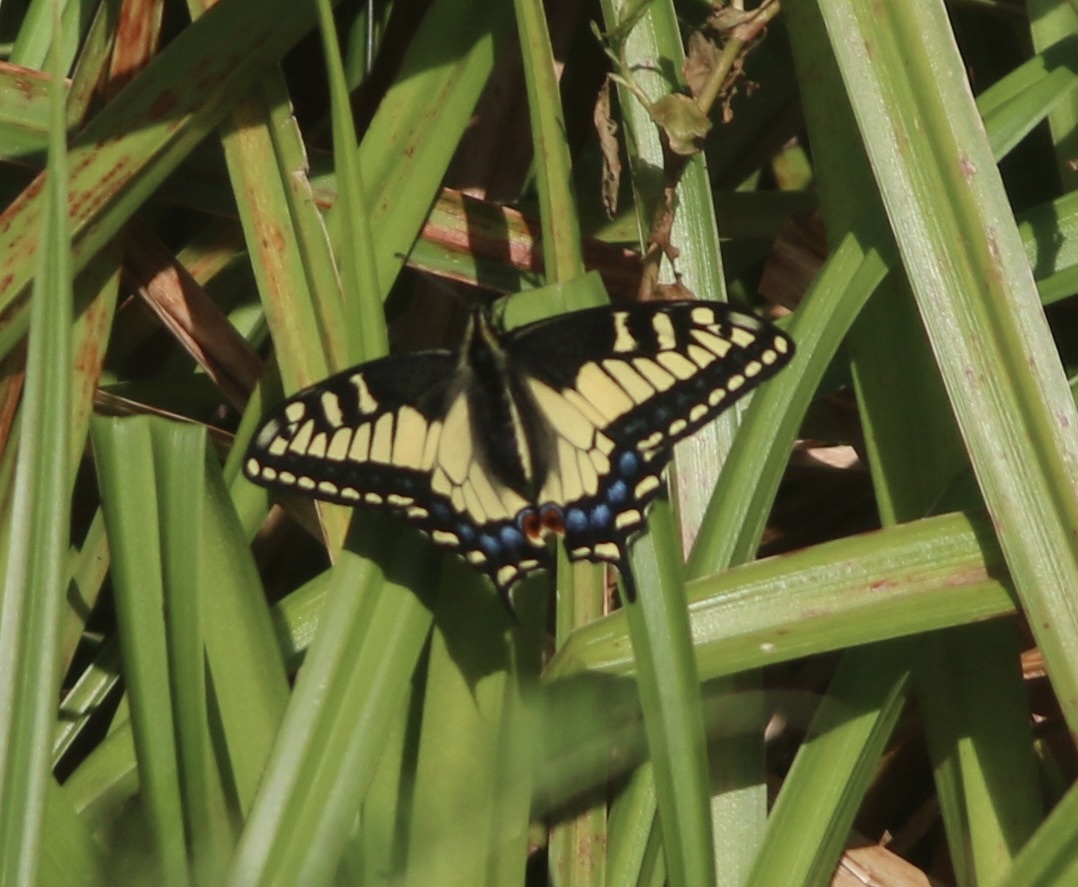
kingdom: Animalia
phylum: Arthropoda
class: Insecta
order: Lepidoptera
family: Papilionidae
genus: Papilio
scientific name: Papilio zelicaon
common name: Anise swallowtail
